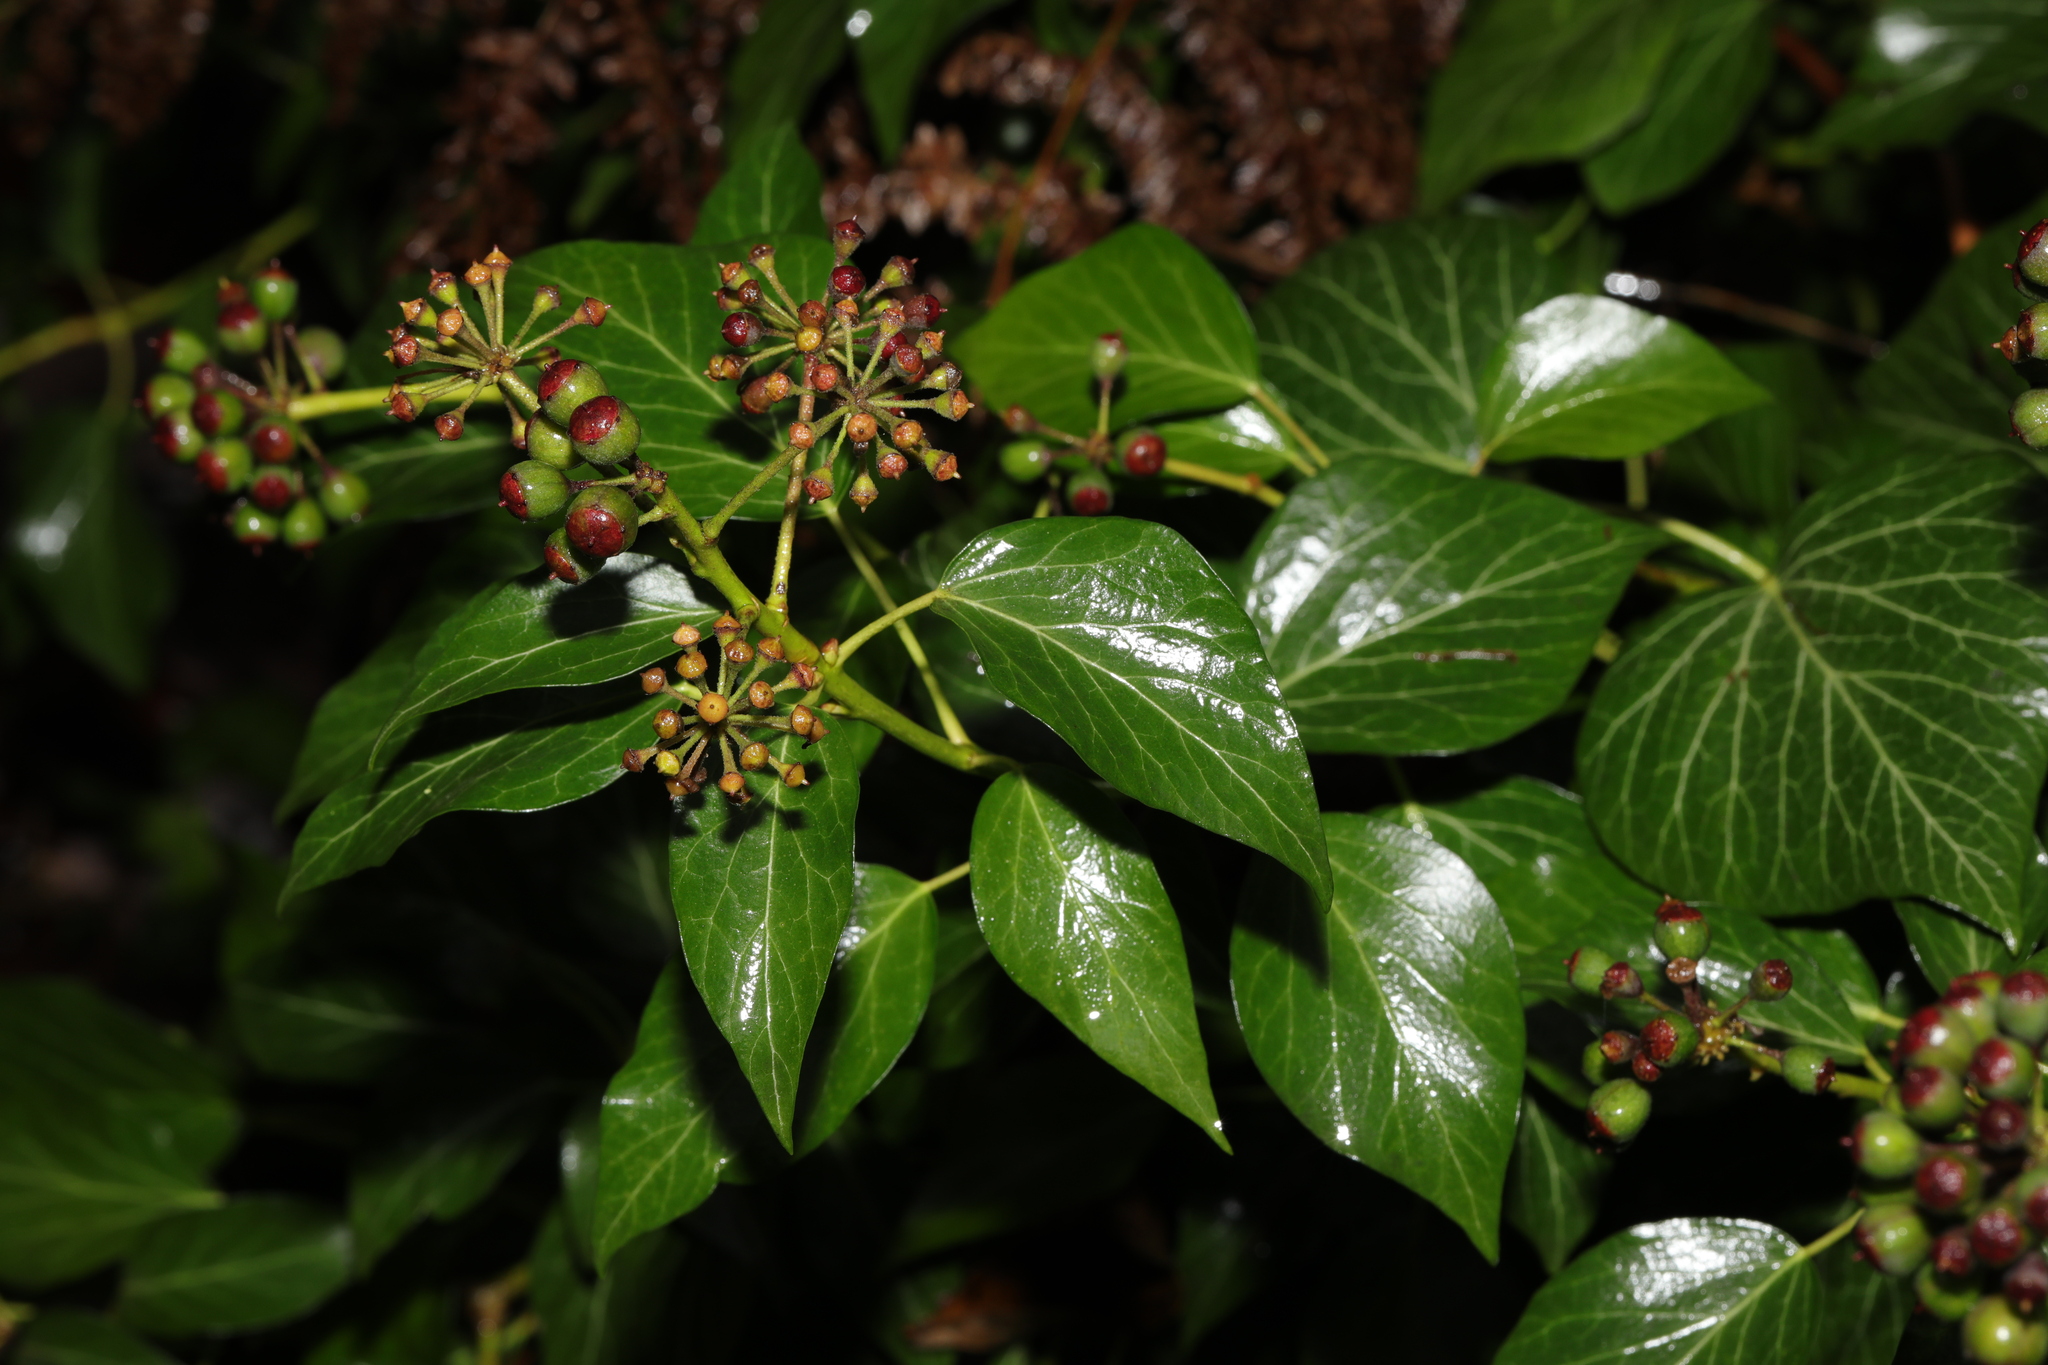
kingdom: Plantae
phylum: Tracheophyta
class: Magnoliopsida
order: Apiales
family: Araliaceae
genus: Hedera
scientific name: Hedera helix
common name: Ivy
